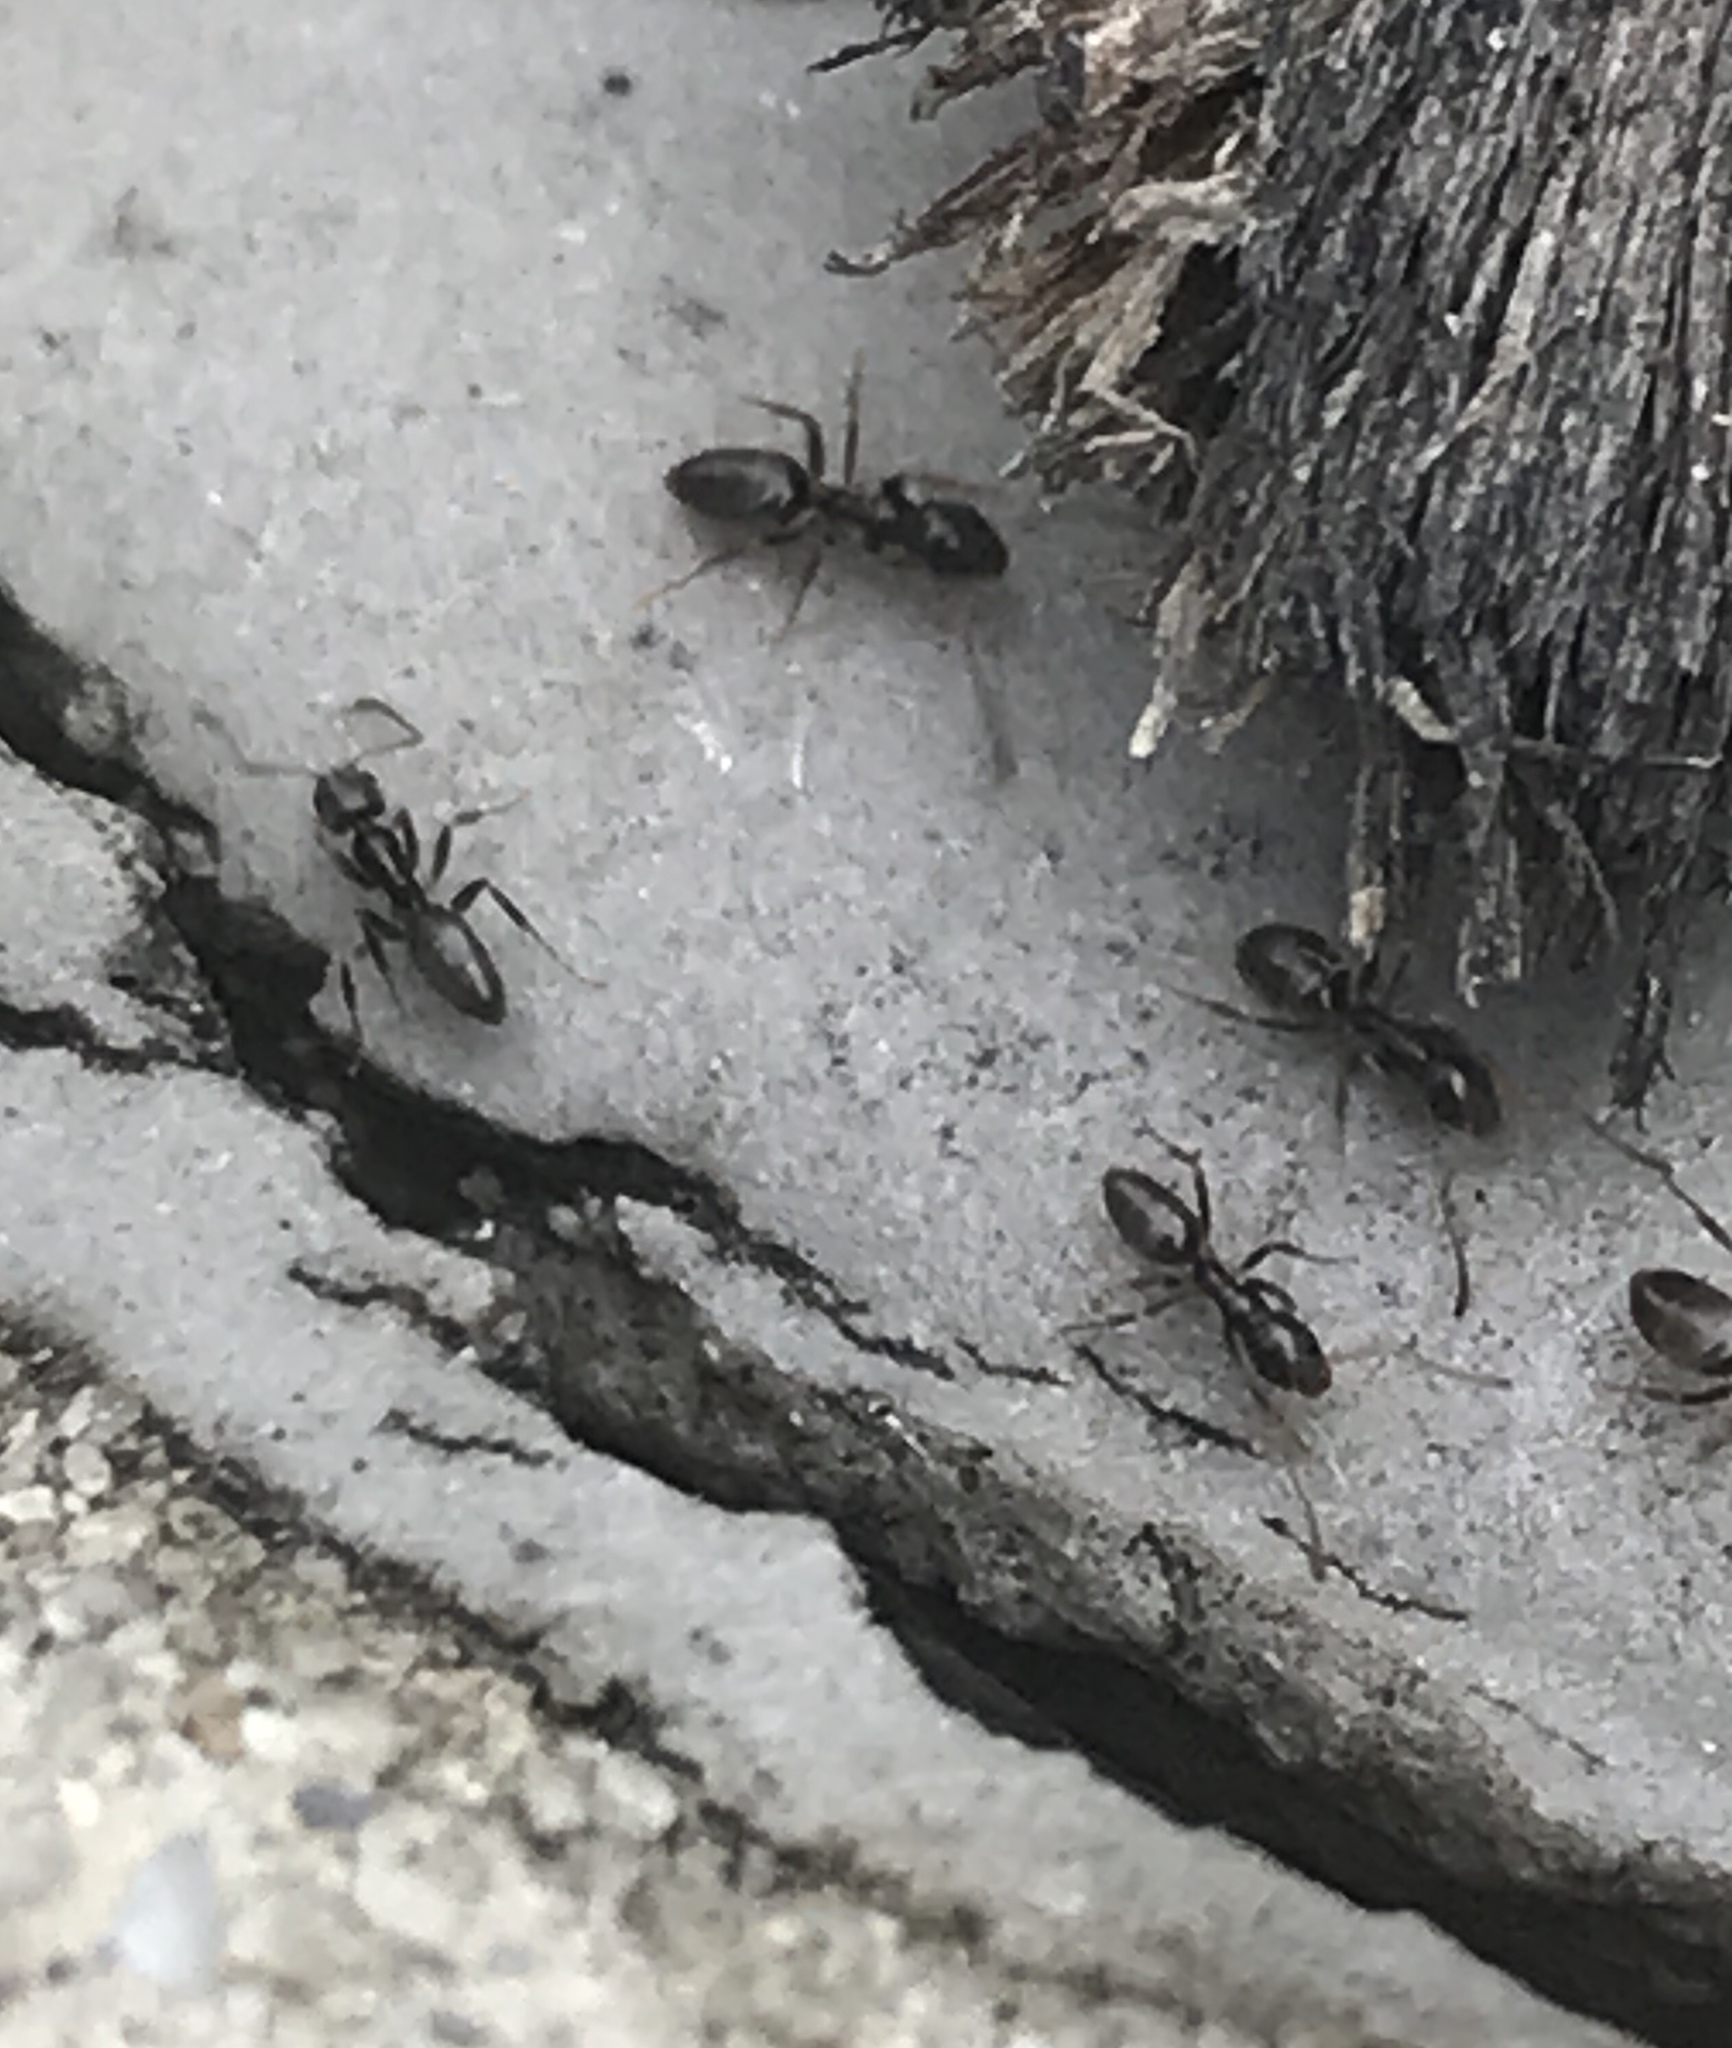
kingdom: Animalia
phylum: Arthropoda
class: Insecta
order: Hymenoptera
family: Formicidae
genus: Tapinoma
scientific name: Tapinoma sessile
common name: Odorous house ant
